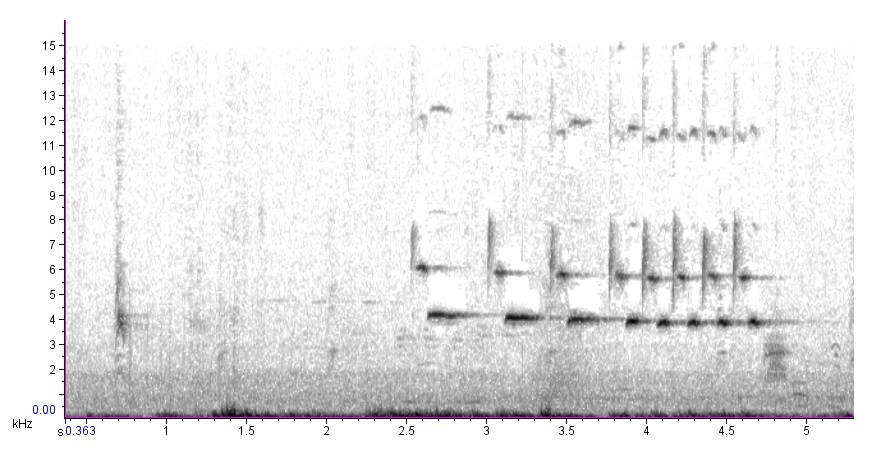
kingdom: Animalia
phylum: Chordata
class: Aves
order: Passeriformes
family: Passerellidae
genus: Melospiza
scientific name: Melospiza melodia
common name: Song sparrow
